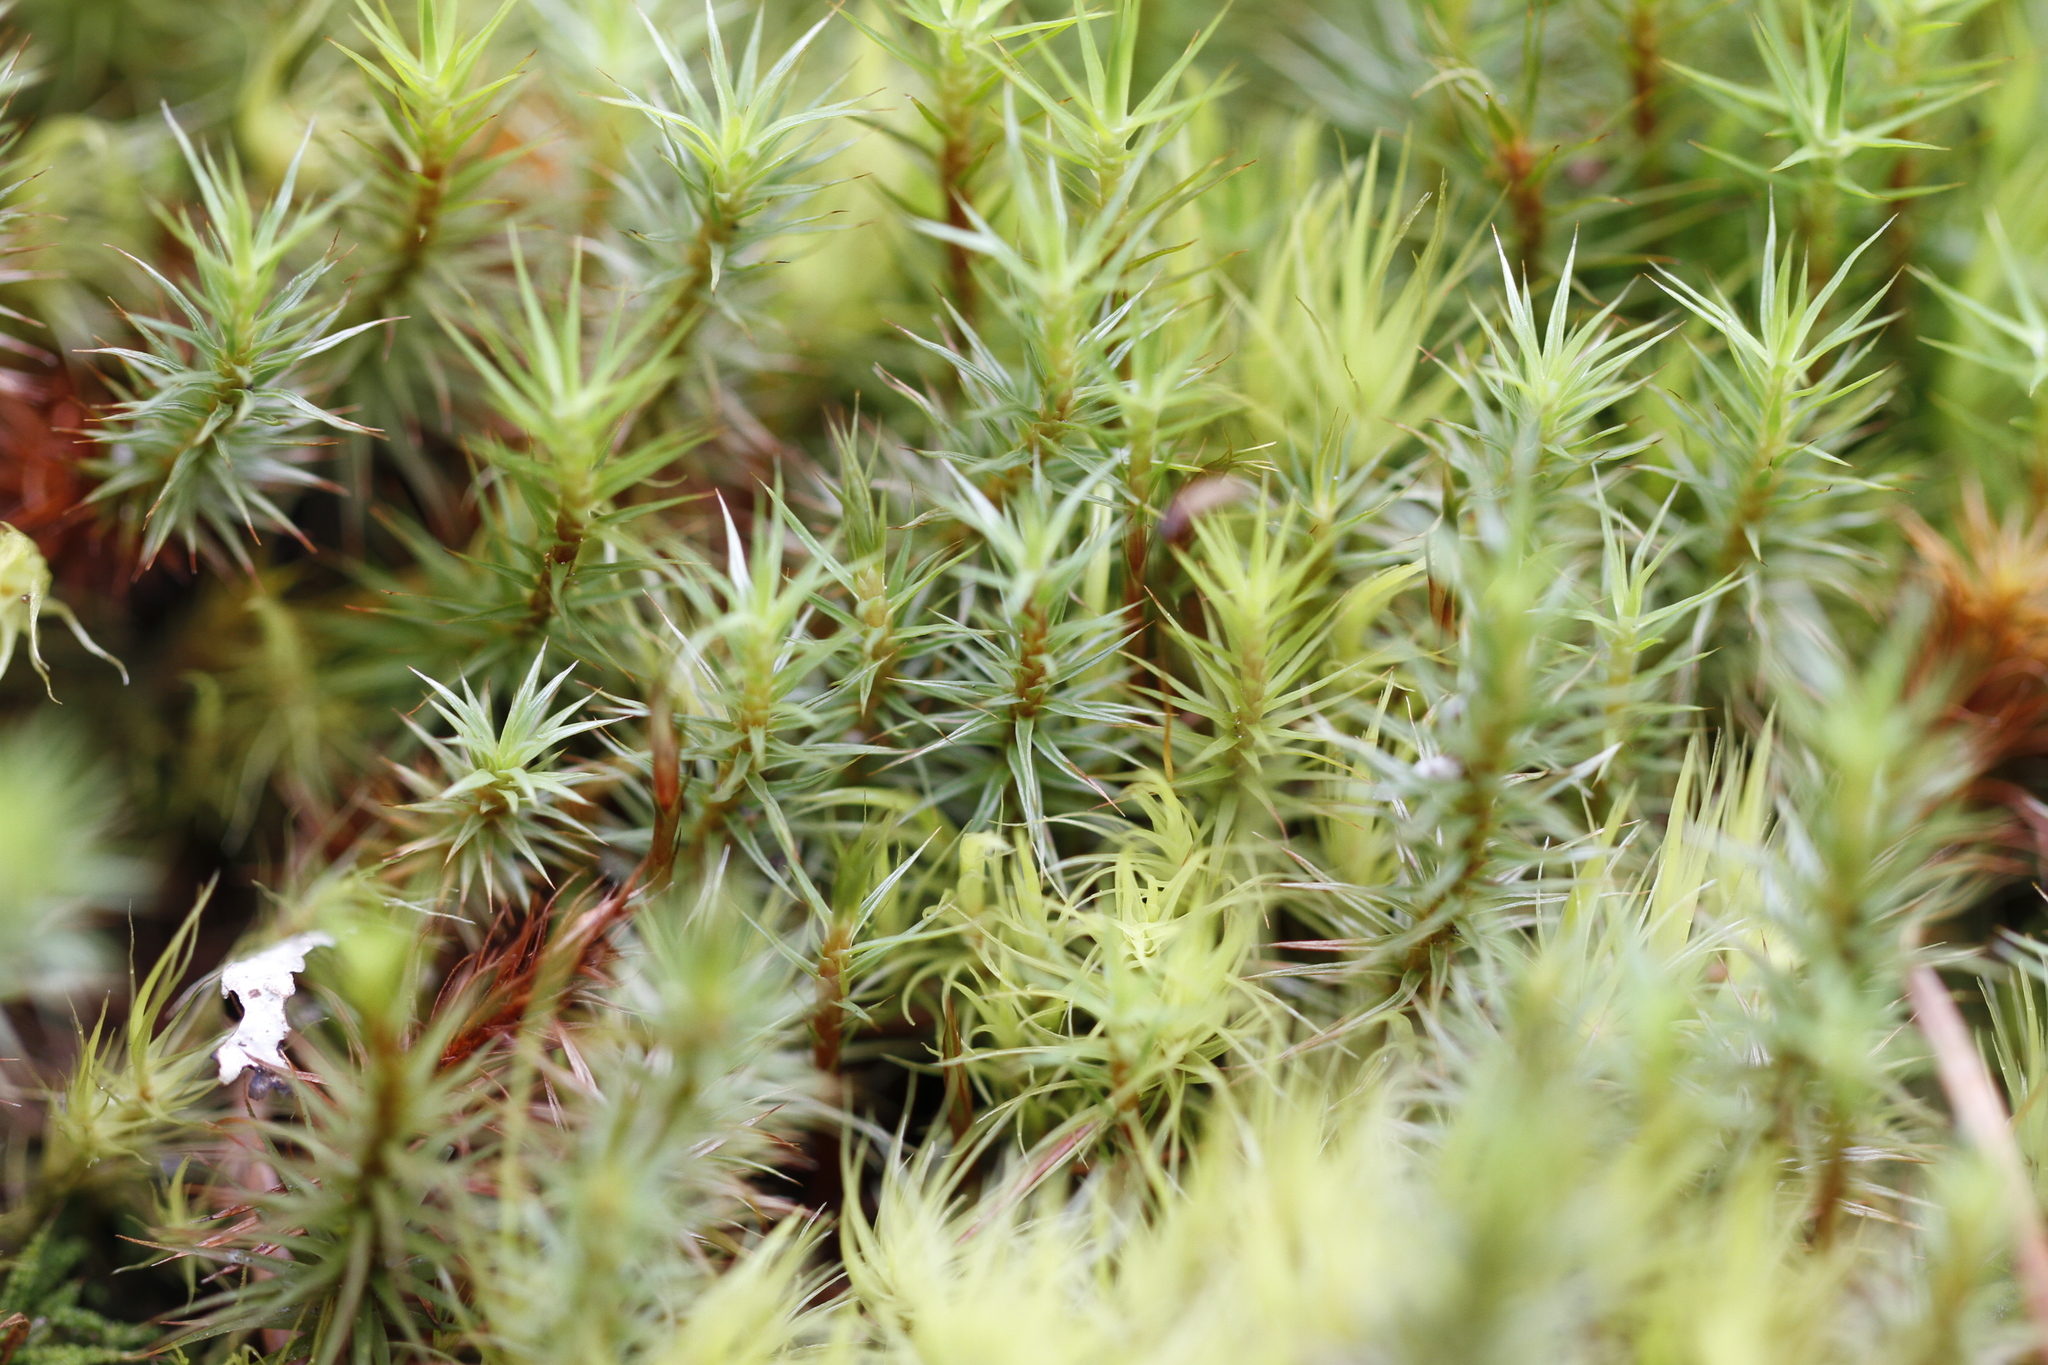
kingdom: Plantae
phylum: Bryophyta
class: Polytrichopsida
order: Polytrichales
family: Polytrichaceae
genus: Polytrichum
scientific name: Polytrichum juniperinum
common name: Juniper haircap moss
